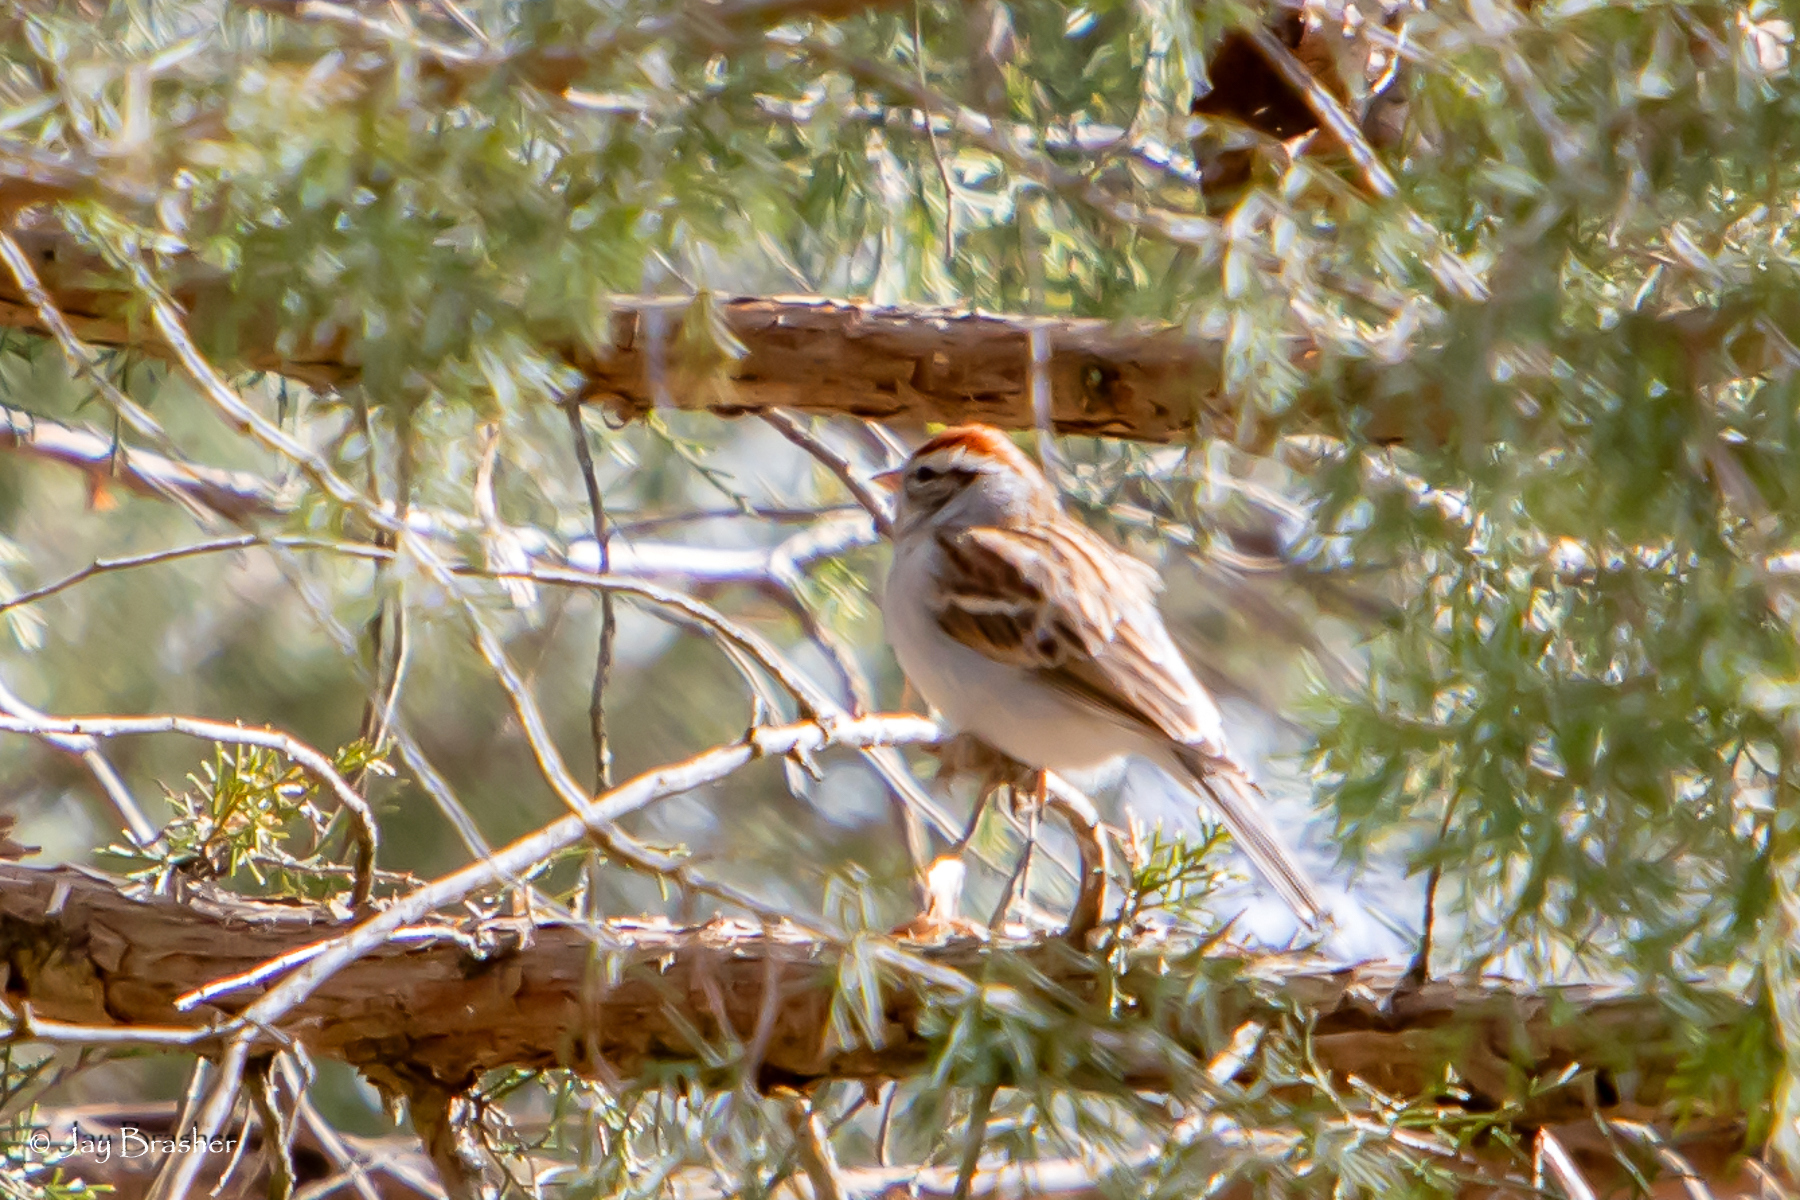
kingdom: Animalia
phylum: Chordata
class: Aves
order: Passeriformes
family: Passerellidae
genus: Spizella
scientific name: Spizella passerina
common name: Chipping sparrow
